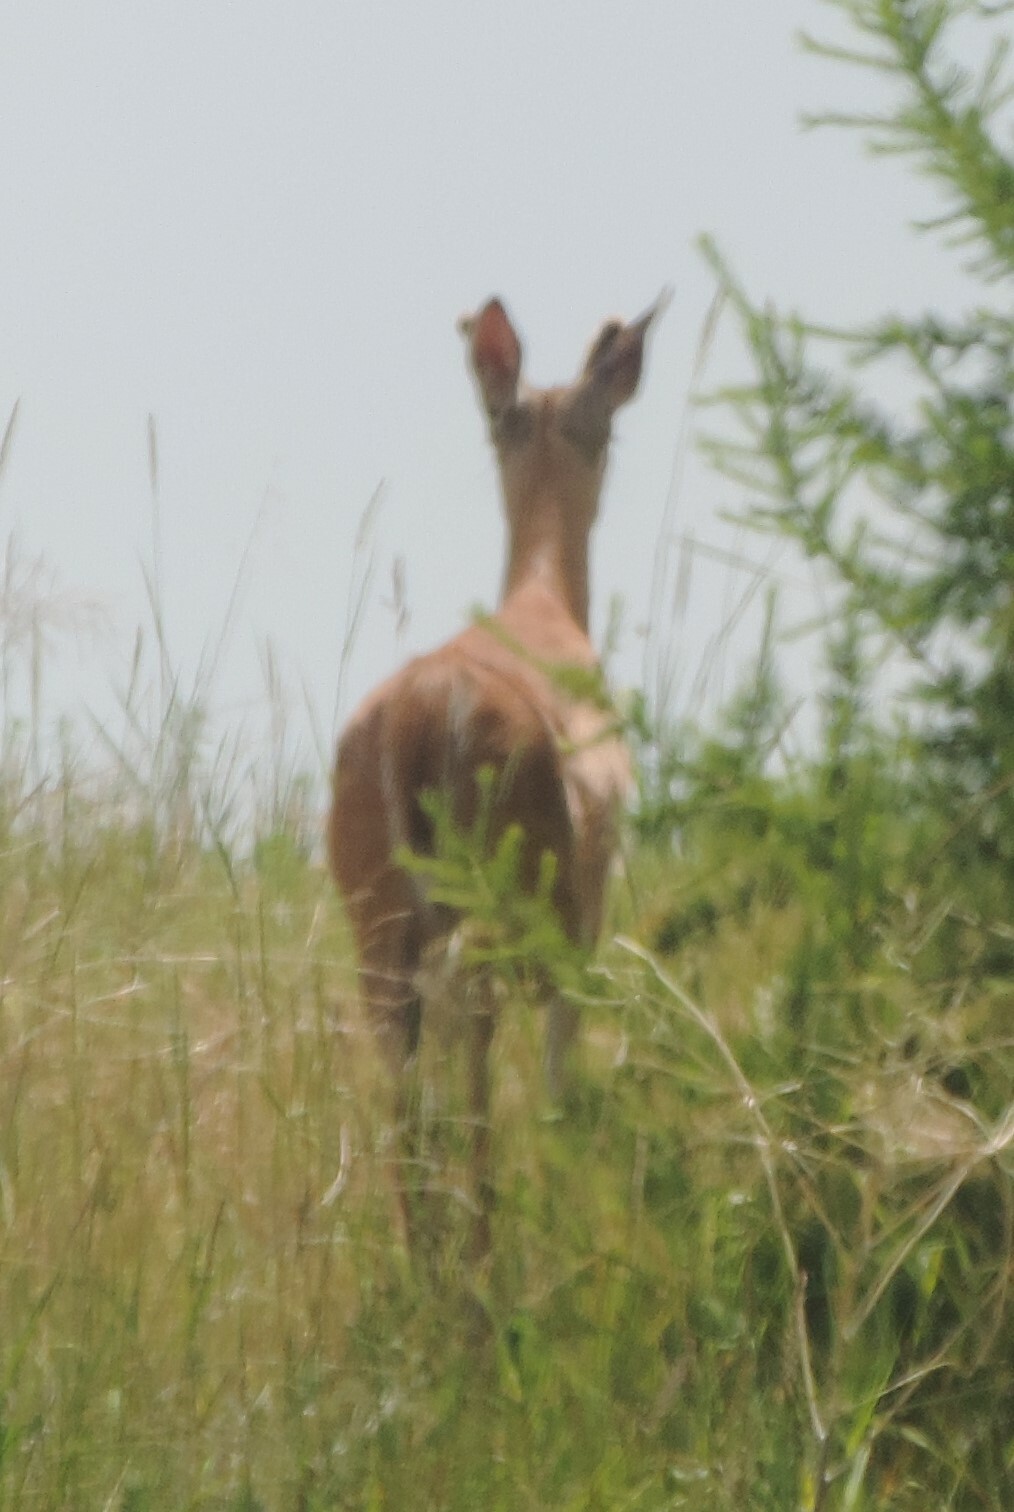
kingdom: Animalia
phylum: Chordata
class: Mammalia
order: Artiodactyla
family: Cervidae
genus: Odocoileus
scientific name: Odocoileus virginianus
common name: White-tailed deer
